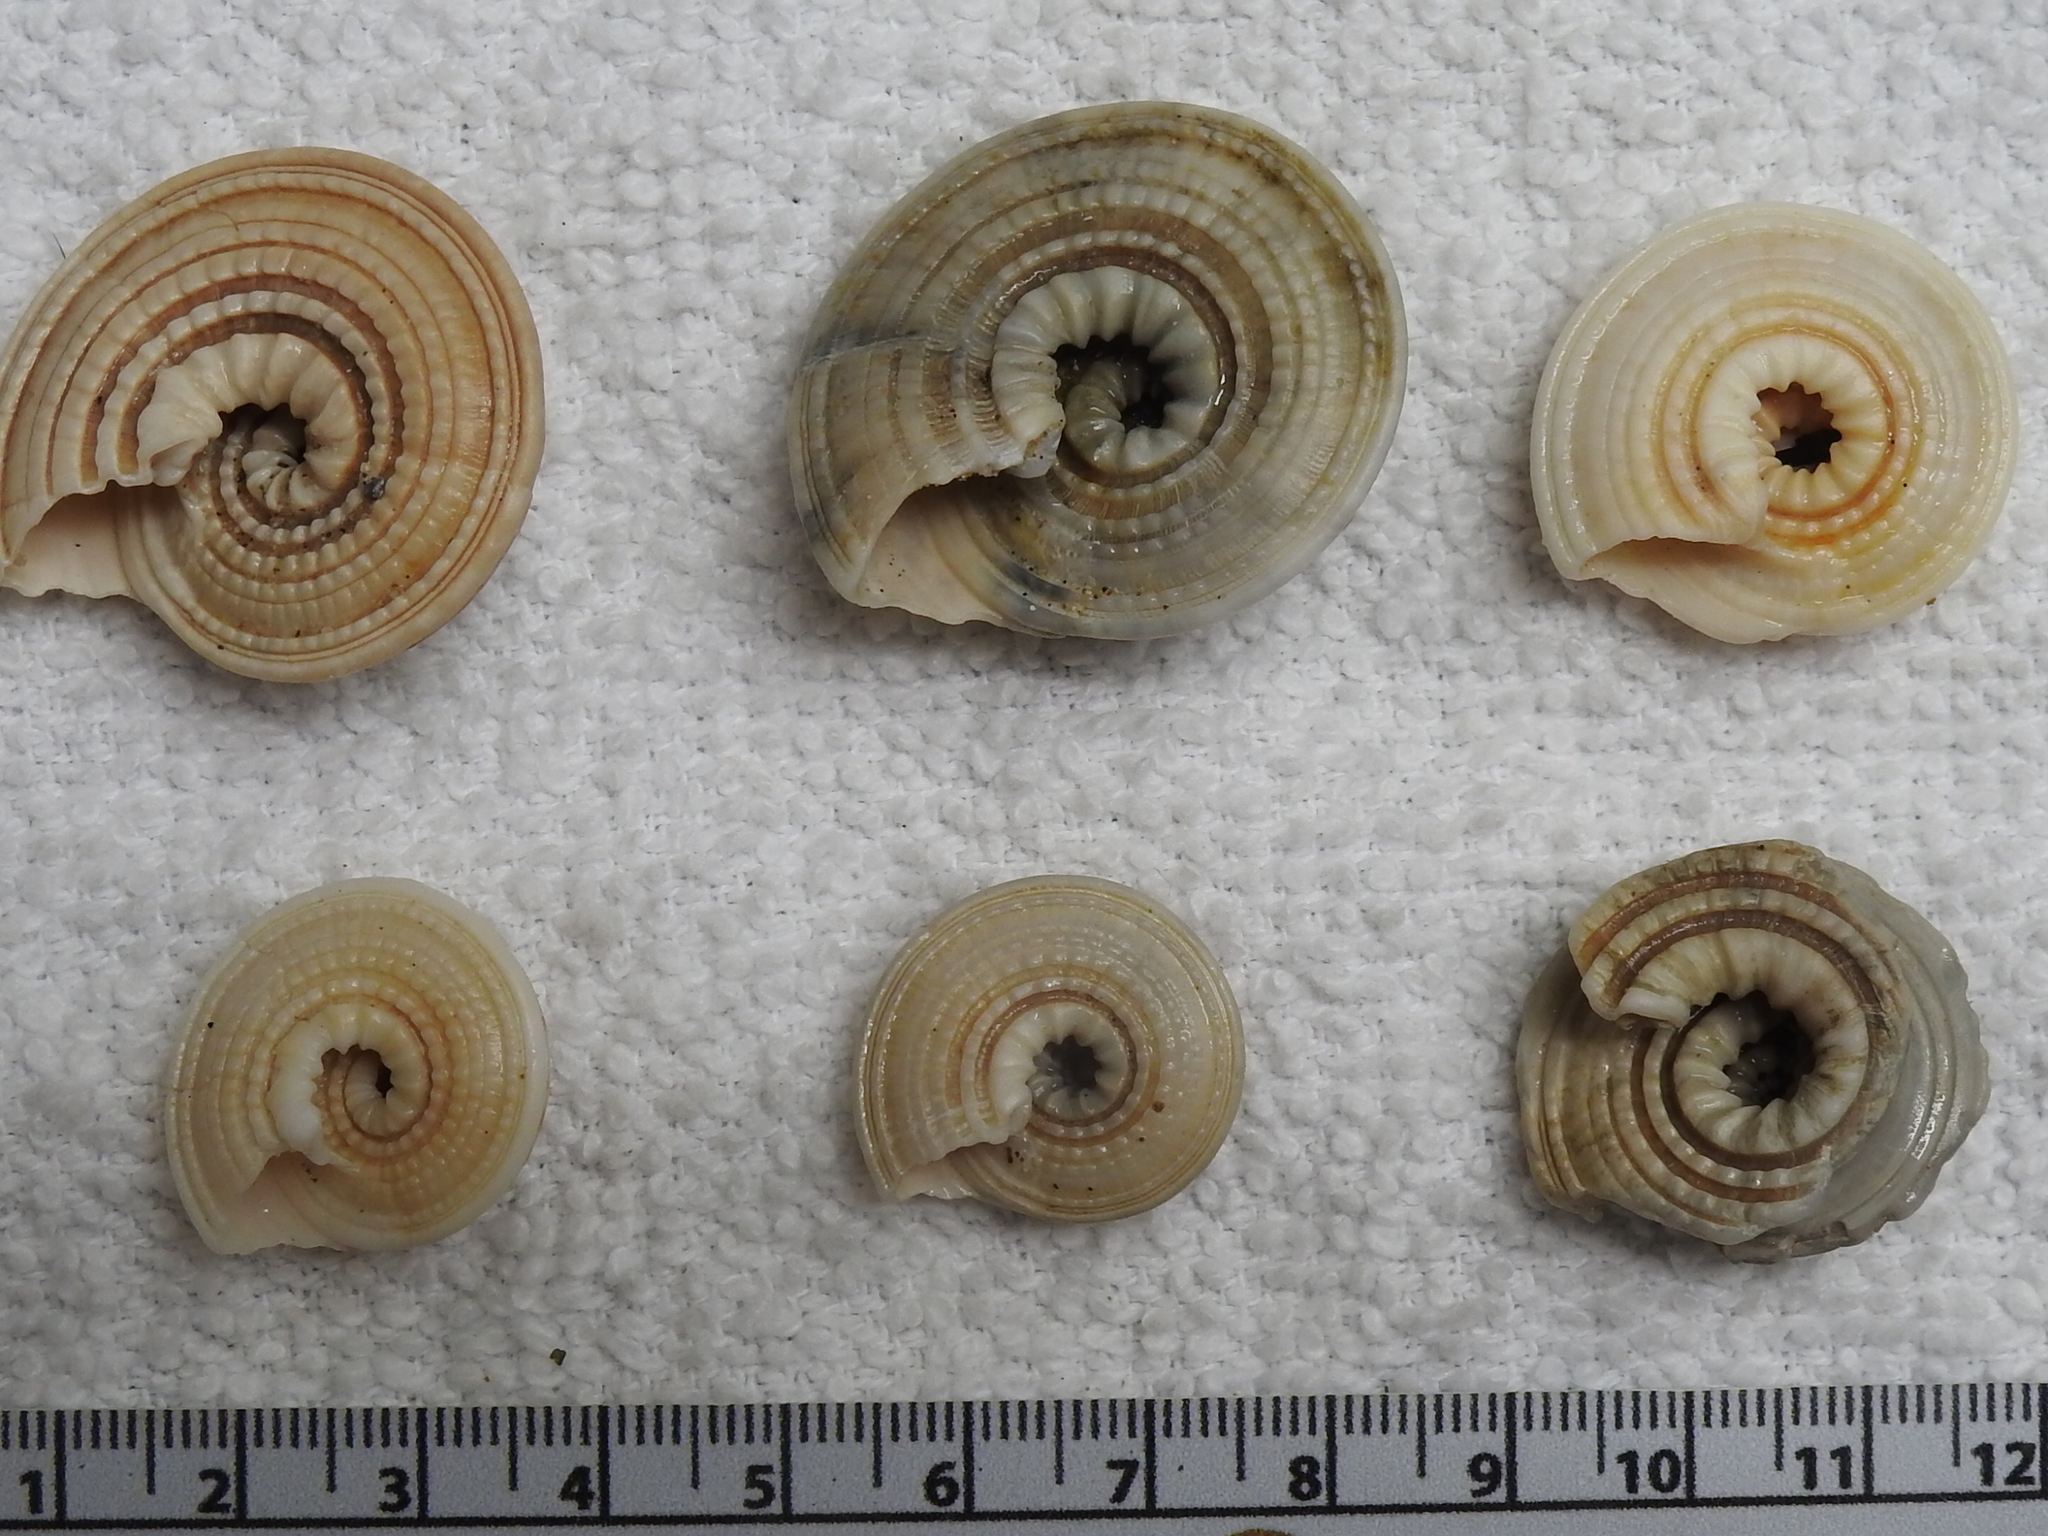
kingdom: Animalia
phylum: Mollusca
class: Gastropoda
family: Architectonicidae
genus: Architectonica
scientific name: Architectonica nobilis
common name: Common sundial
